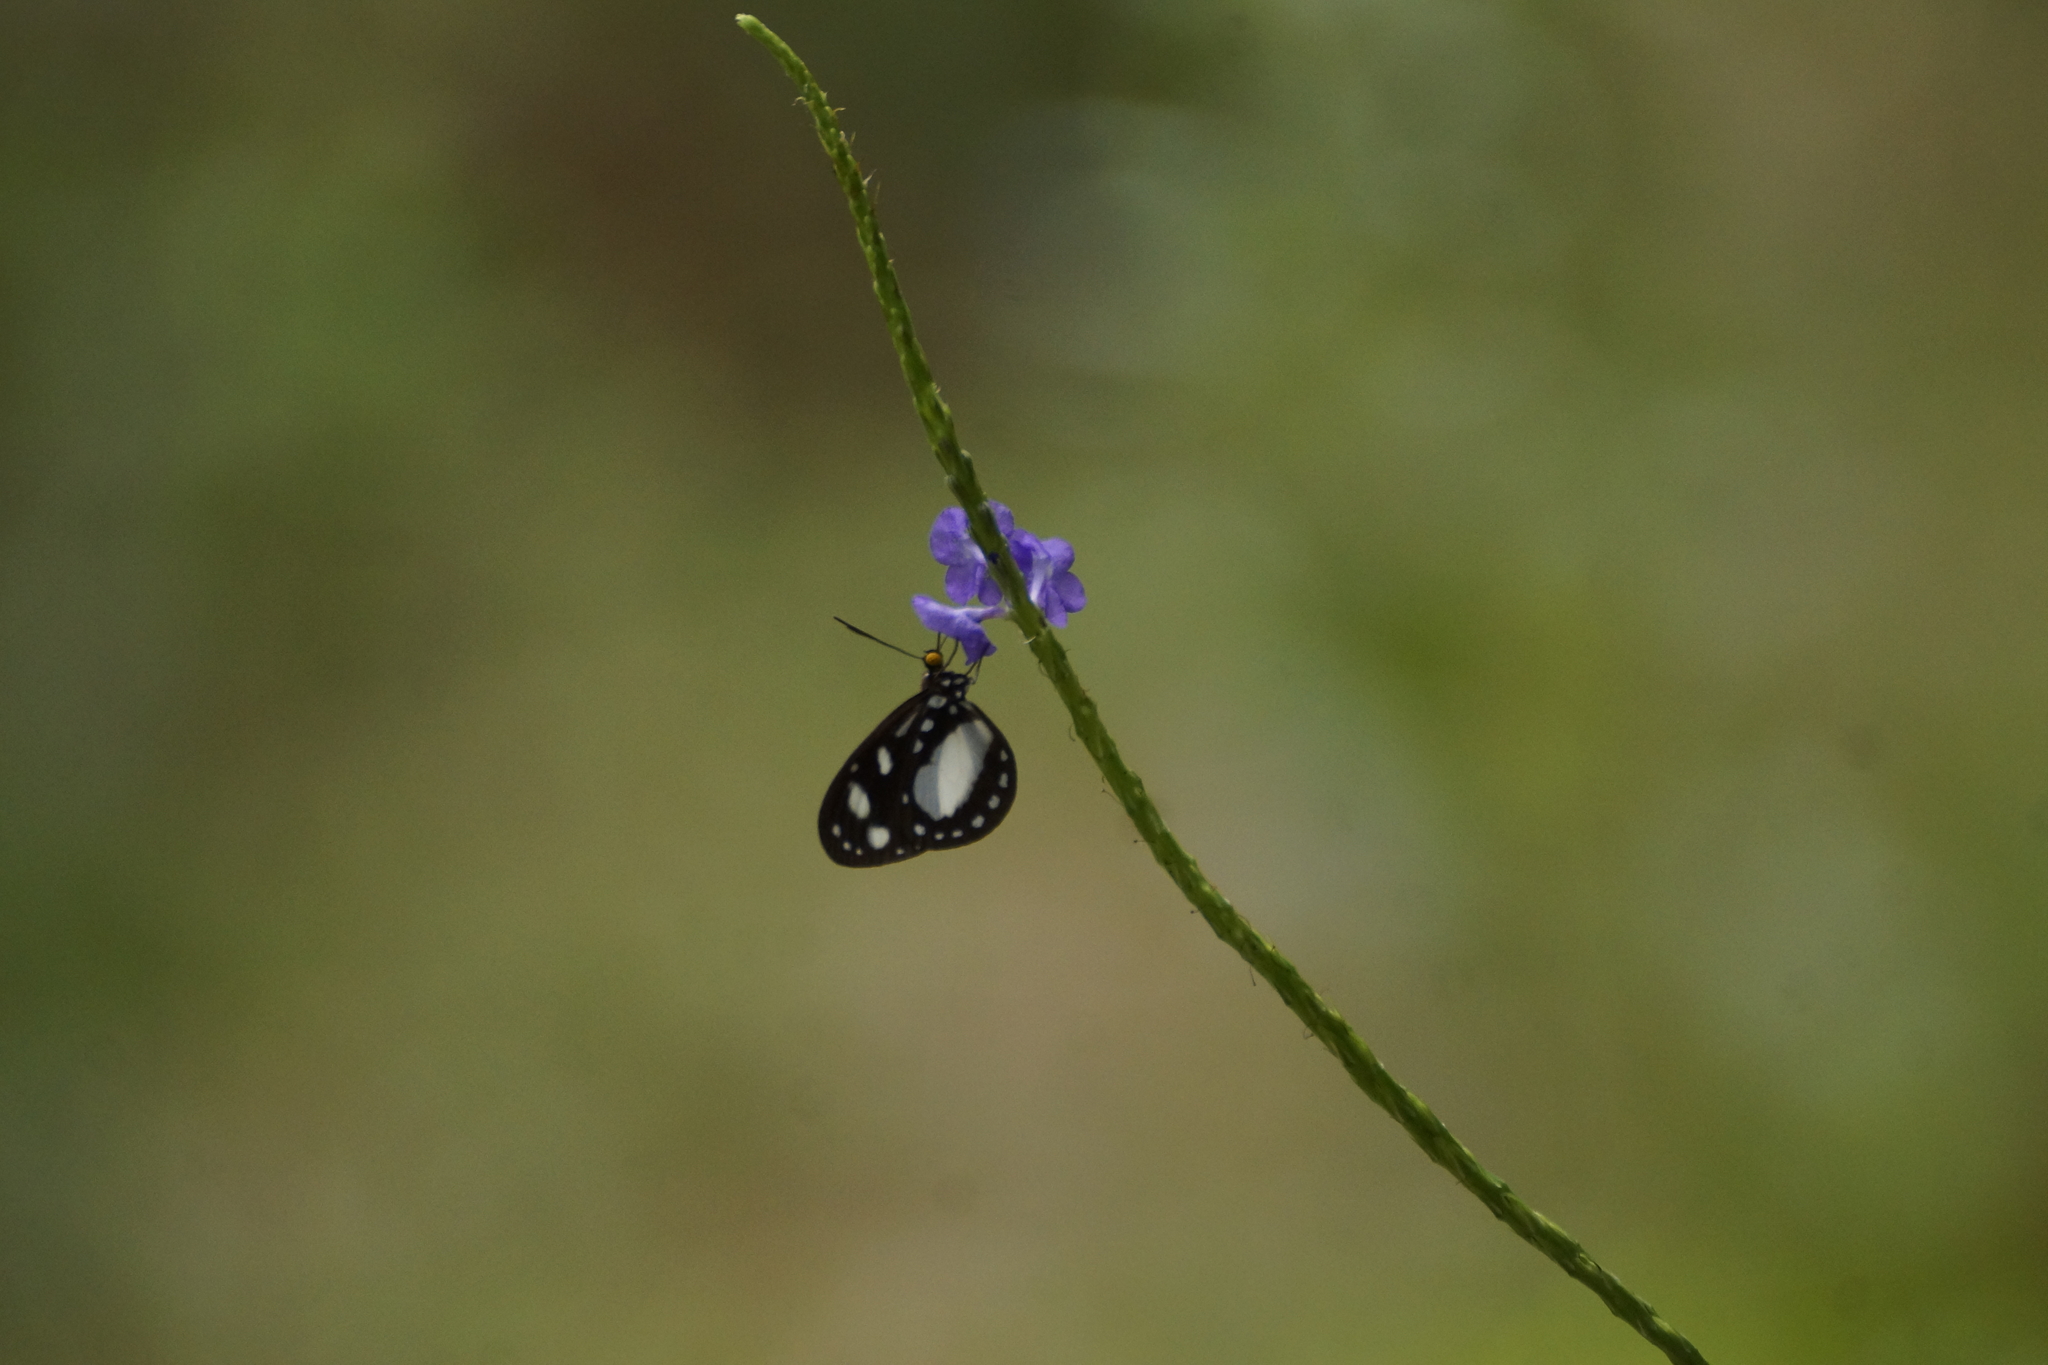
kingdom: Animalia
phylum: Arthropoda
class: Insecta
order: Lepidoptera
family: Nymphalidae
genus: Tellervo
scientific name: Tellervo zoilus
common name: Hamadryad
